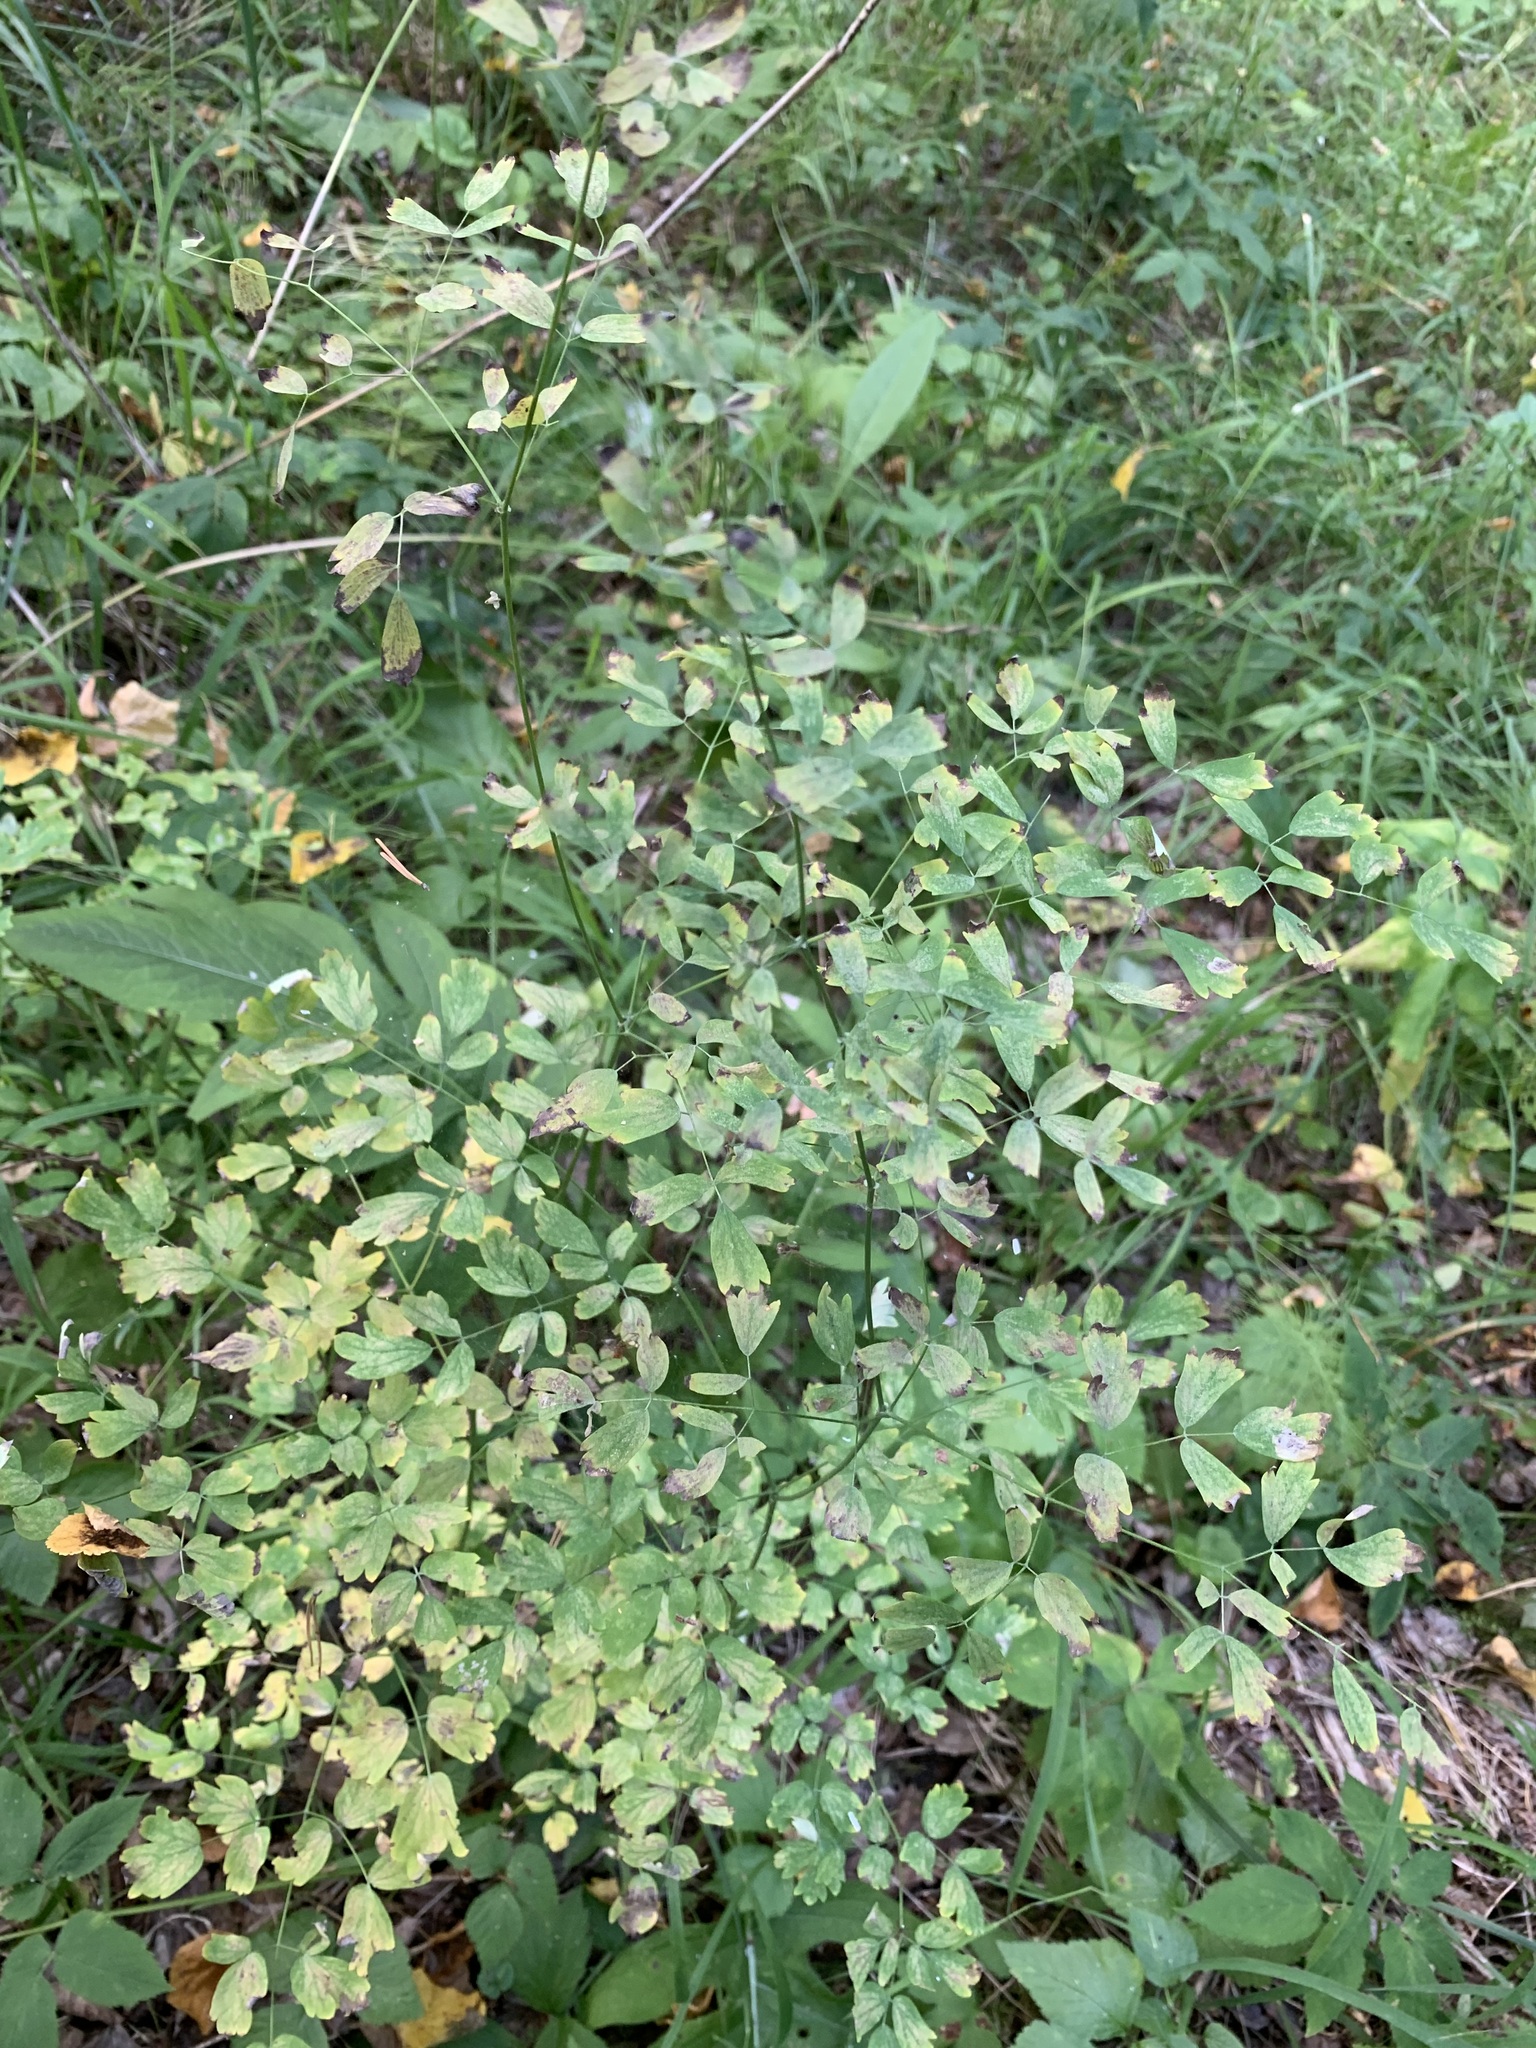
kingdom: Plantae
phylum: Tracheophyta
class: Magnoliopsida
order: Ranunculales
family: Ranunculaceae
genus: Thalictrum
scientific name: Thalictrum minus
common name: Lesser meadow-rue
